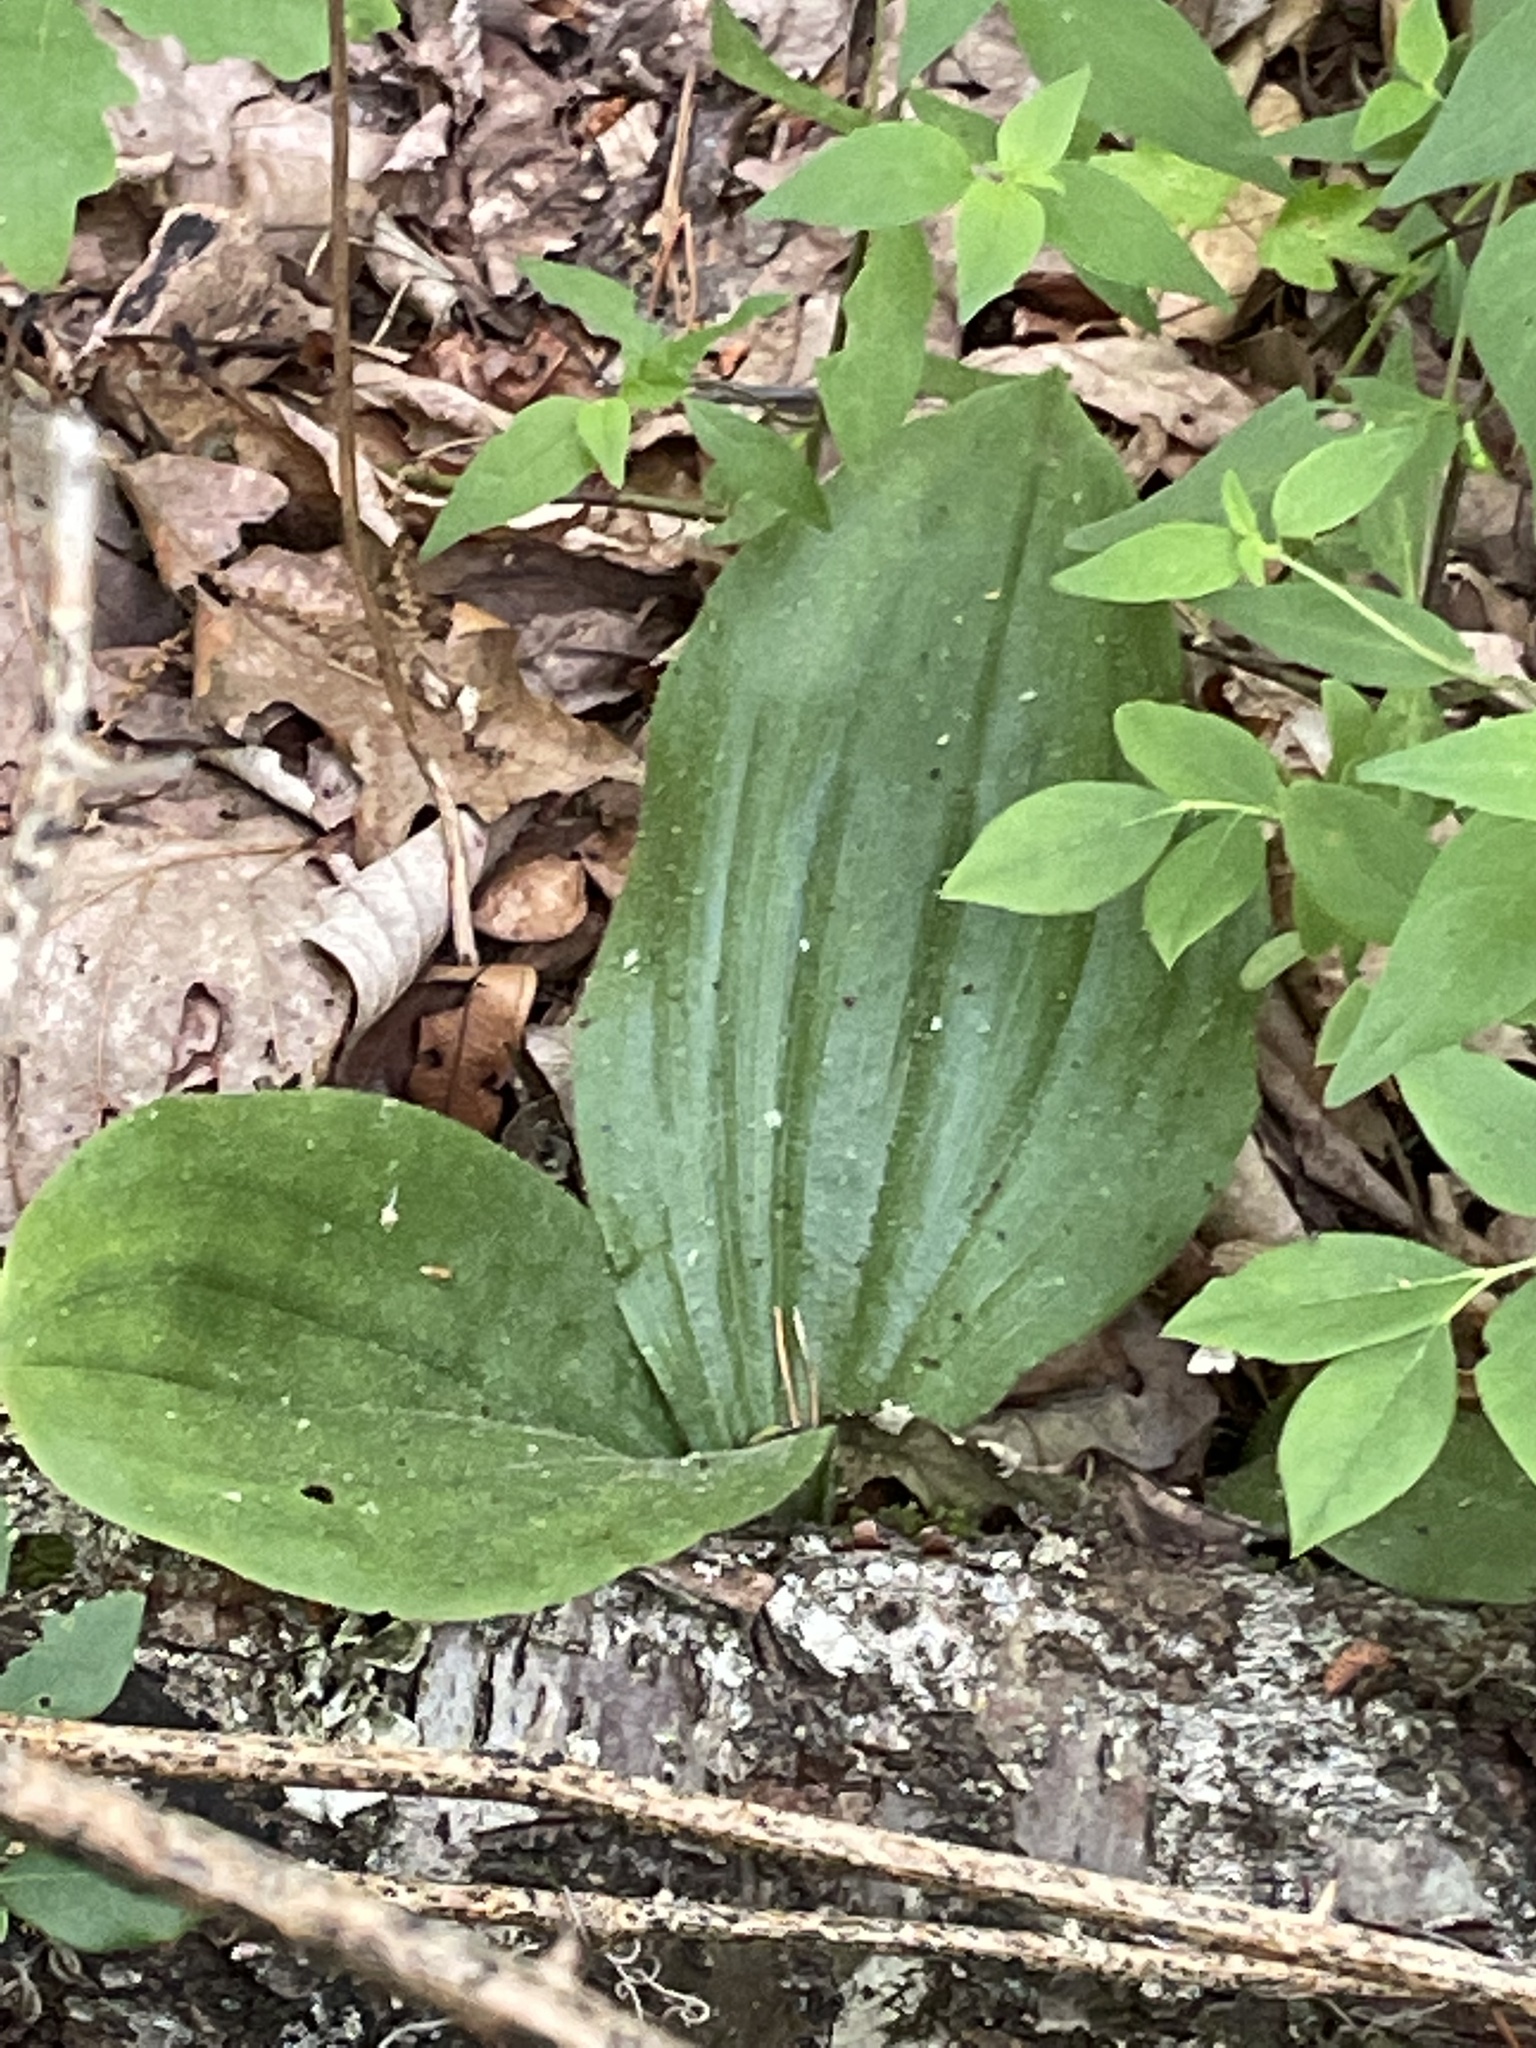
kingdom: Plantae
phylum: Tracheophyta
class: Liliopsida
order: Asparagales
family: Orchidaceae
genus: Cypripedium
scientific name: Cypripedium acaule
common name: Pink lady's-slipper
